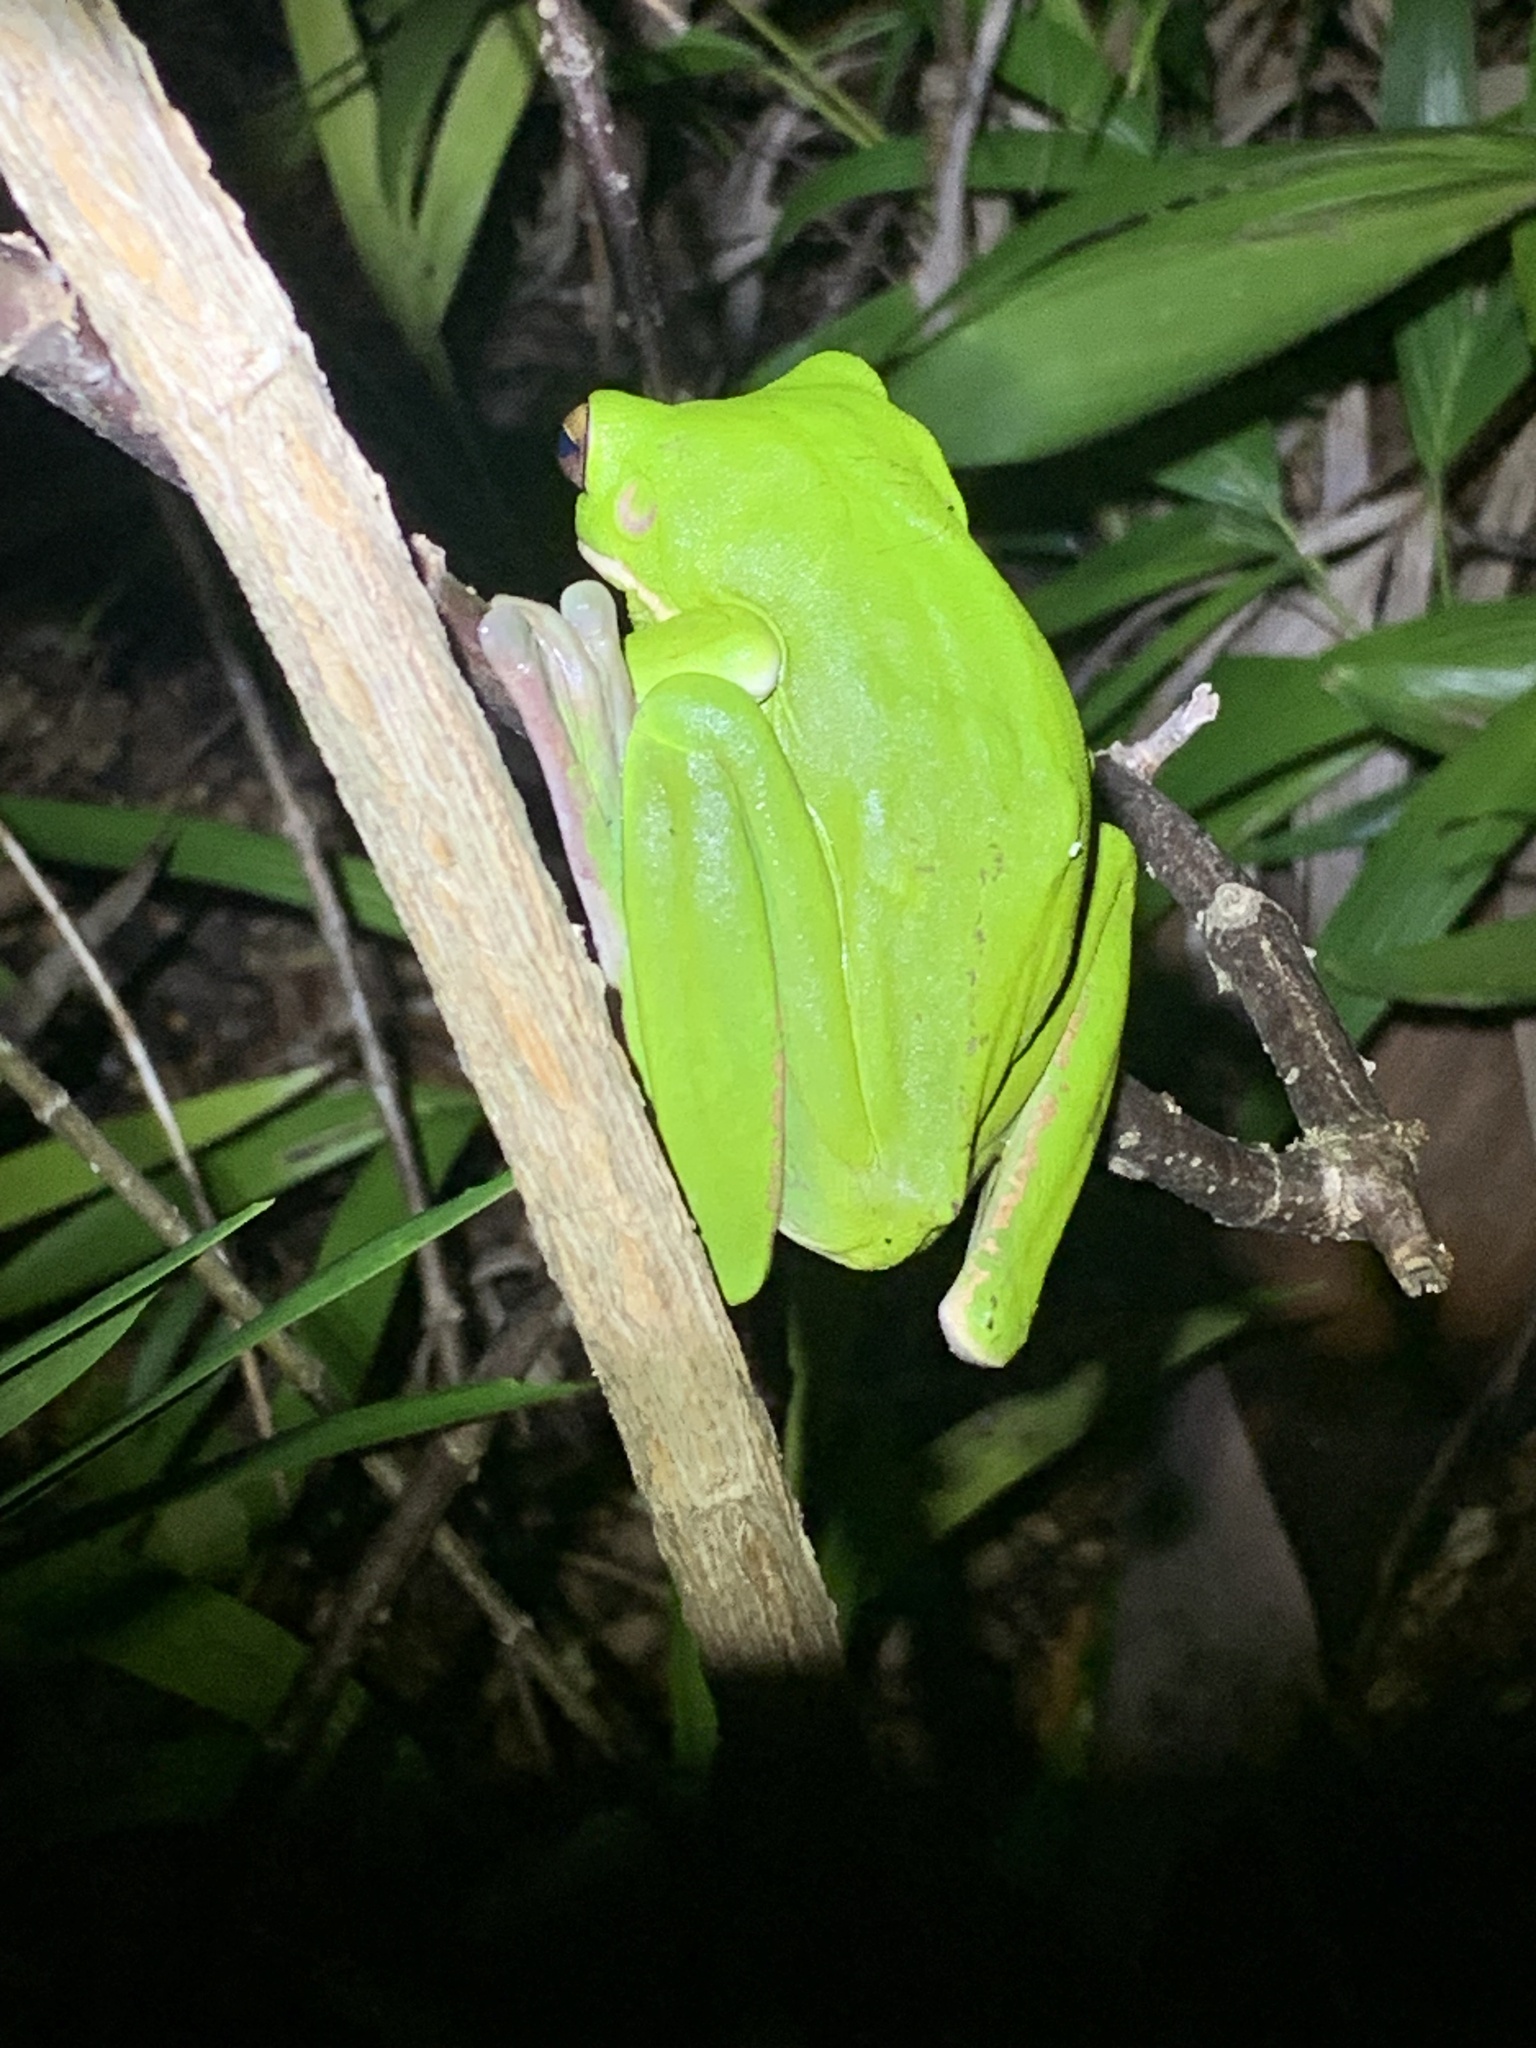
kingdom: Animalia
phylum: Chordata
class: Amphibia
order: Anura
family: Pelodryadidae
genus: Nyctimystes
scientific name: Nyctimystes infrafrenatus
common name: Australian giant treefrog
